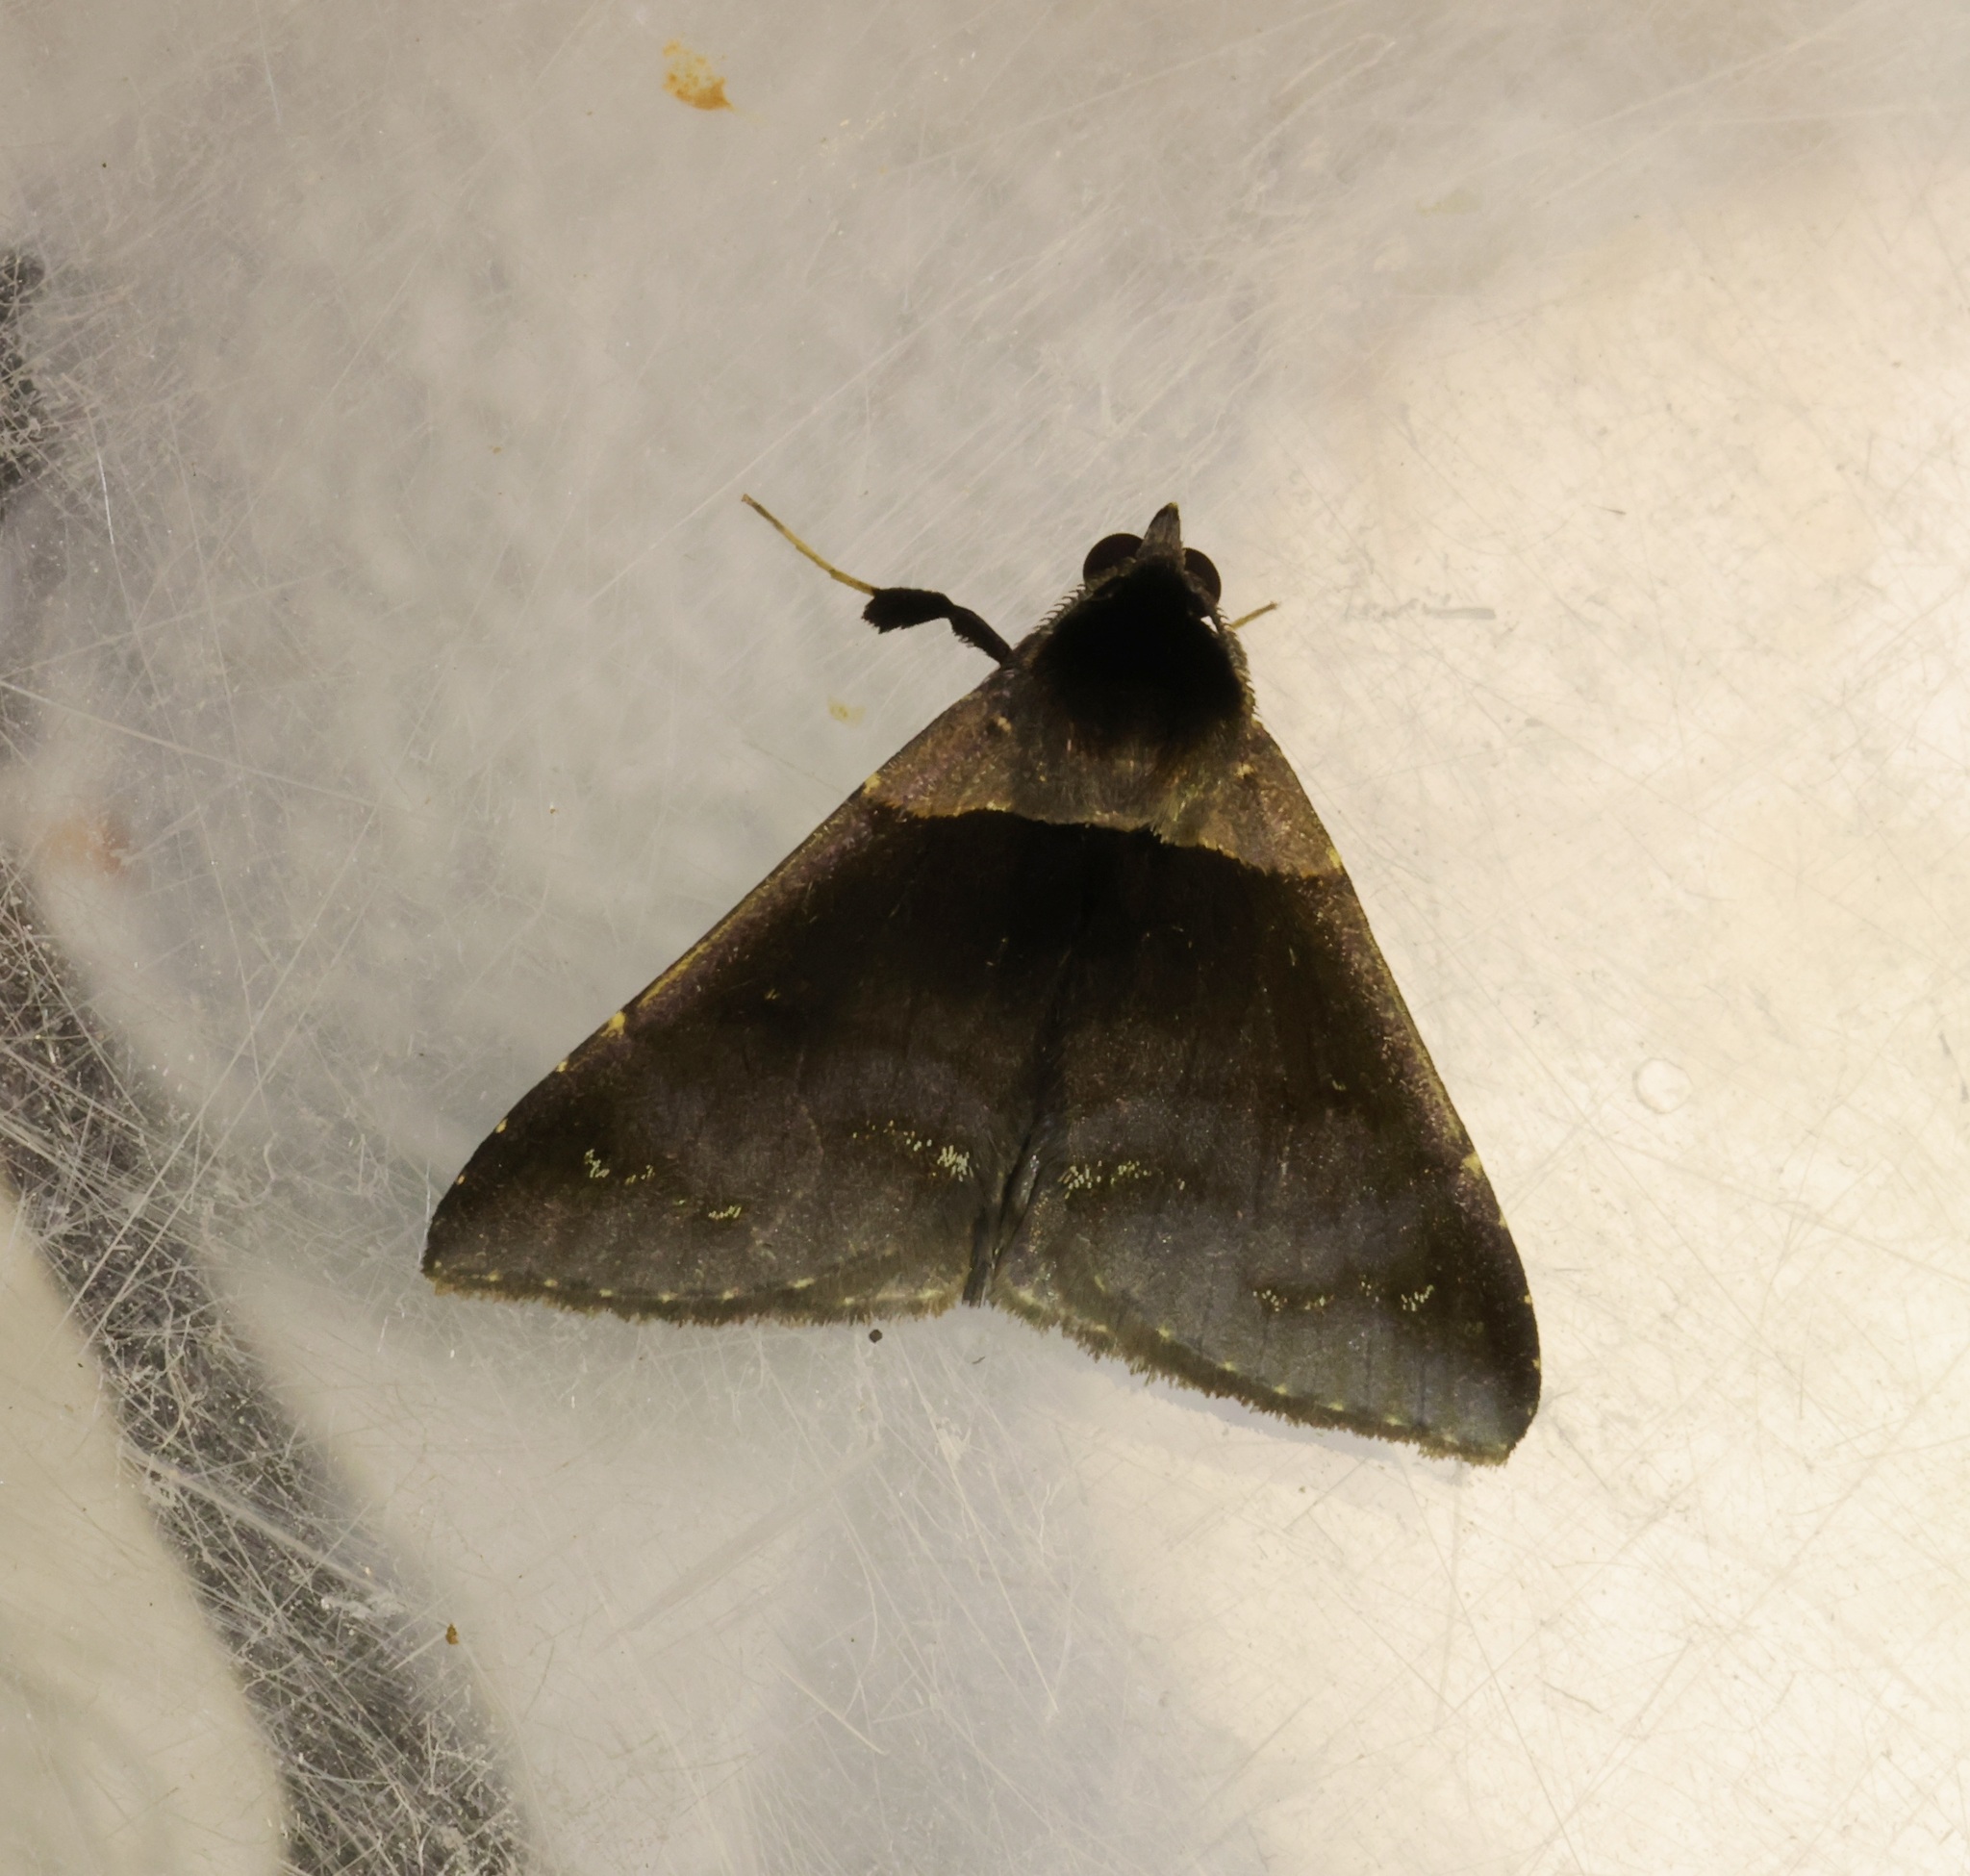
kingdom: Animalia
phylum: Arthropoda
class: Insecta
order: Lepidoptera
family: Erebidae
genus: Crithote
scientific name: Crithote pallivaga
